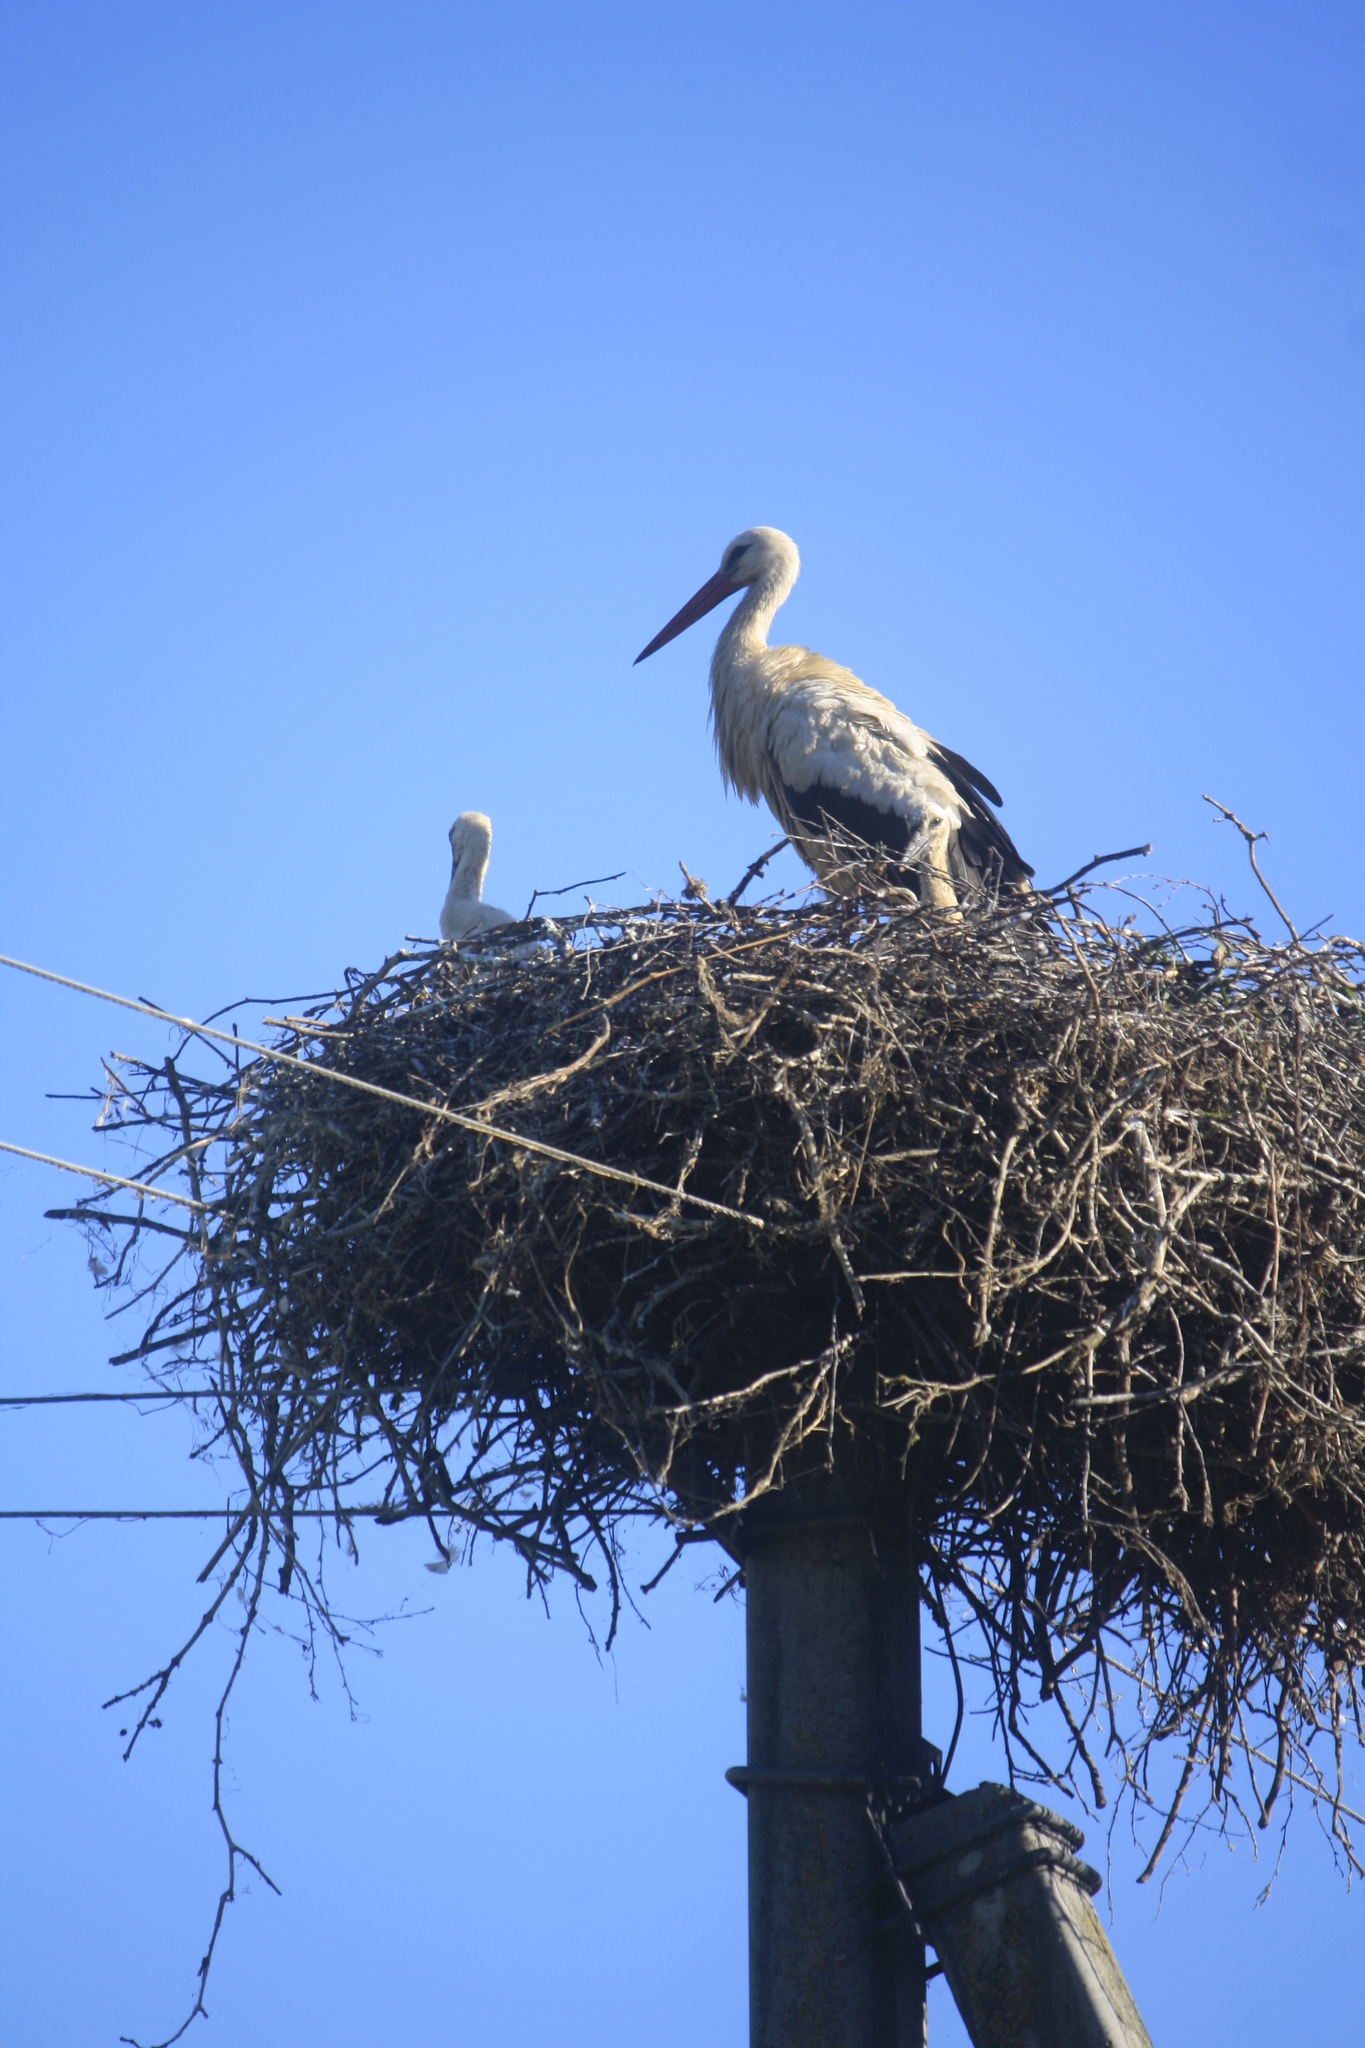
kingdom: Animalia
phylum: Chordata
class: Aves
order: Ciconiiformes
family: Ciconiidae
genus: Ciconia
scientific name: Ciconia ciconia
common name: White stork
